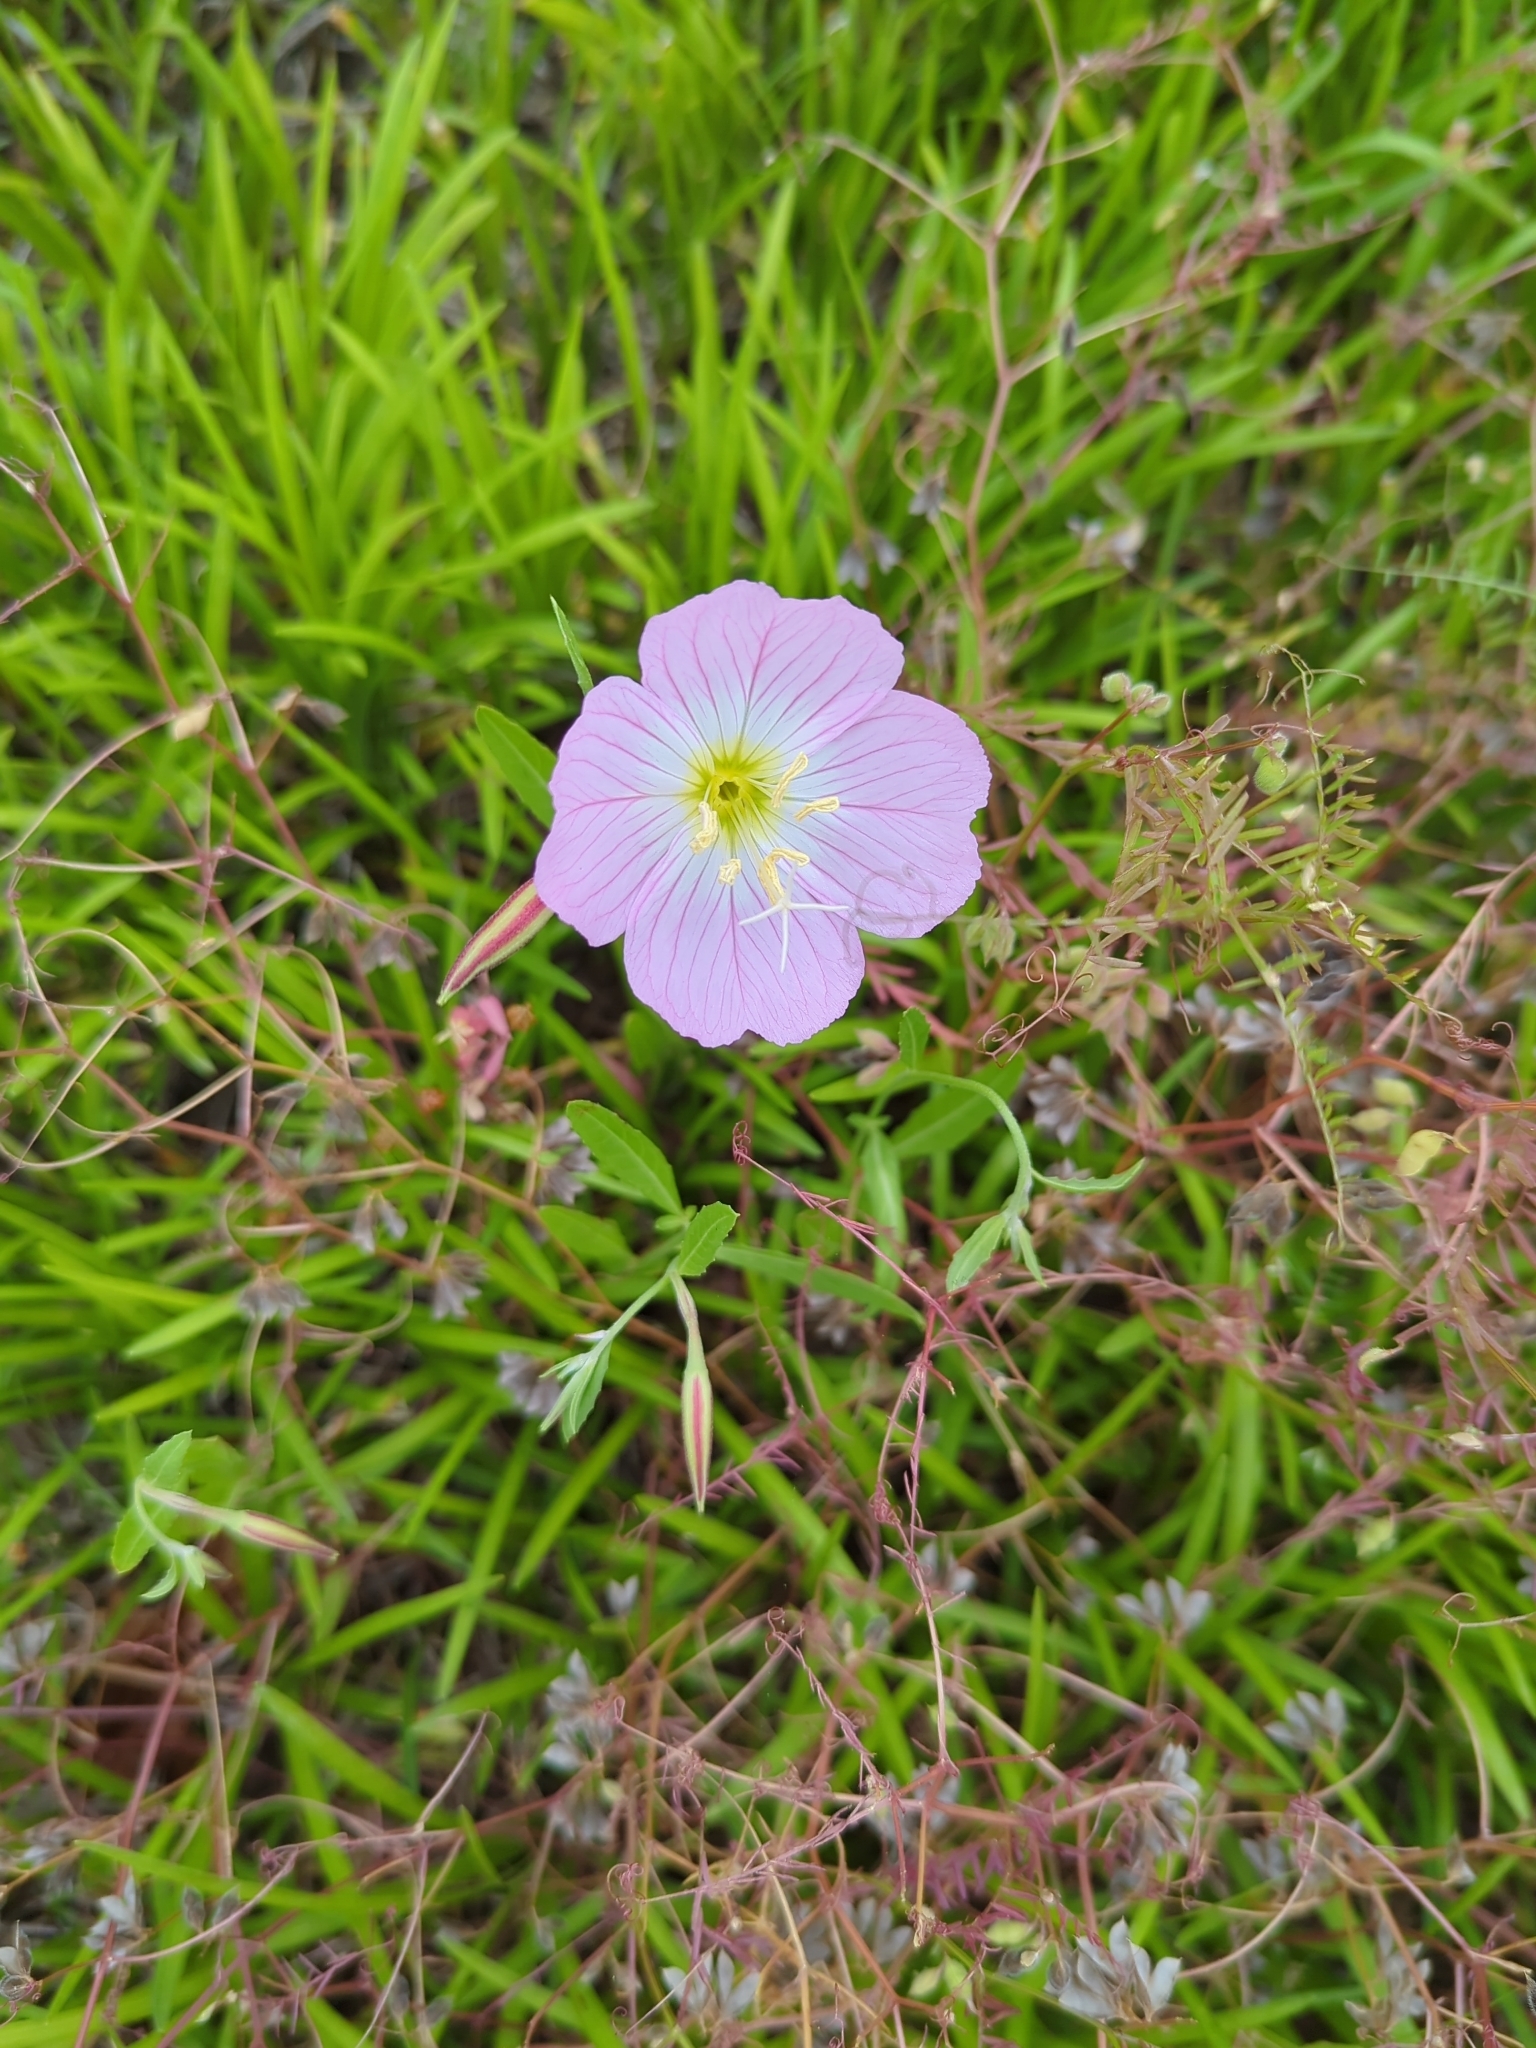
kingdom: Plantae
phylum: Tracheophyta
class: Magnoliopsida
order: Myrtales
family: Onagraceae
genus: Oenothera
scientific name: Oenothera speciosa
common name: White evening-primrose
